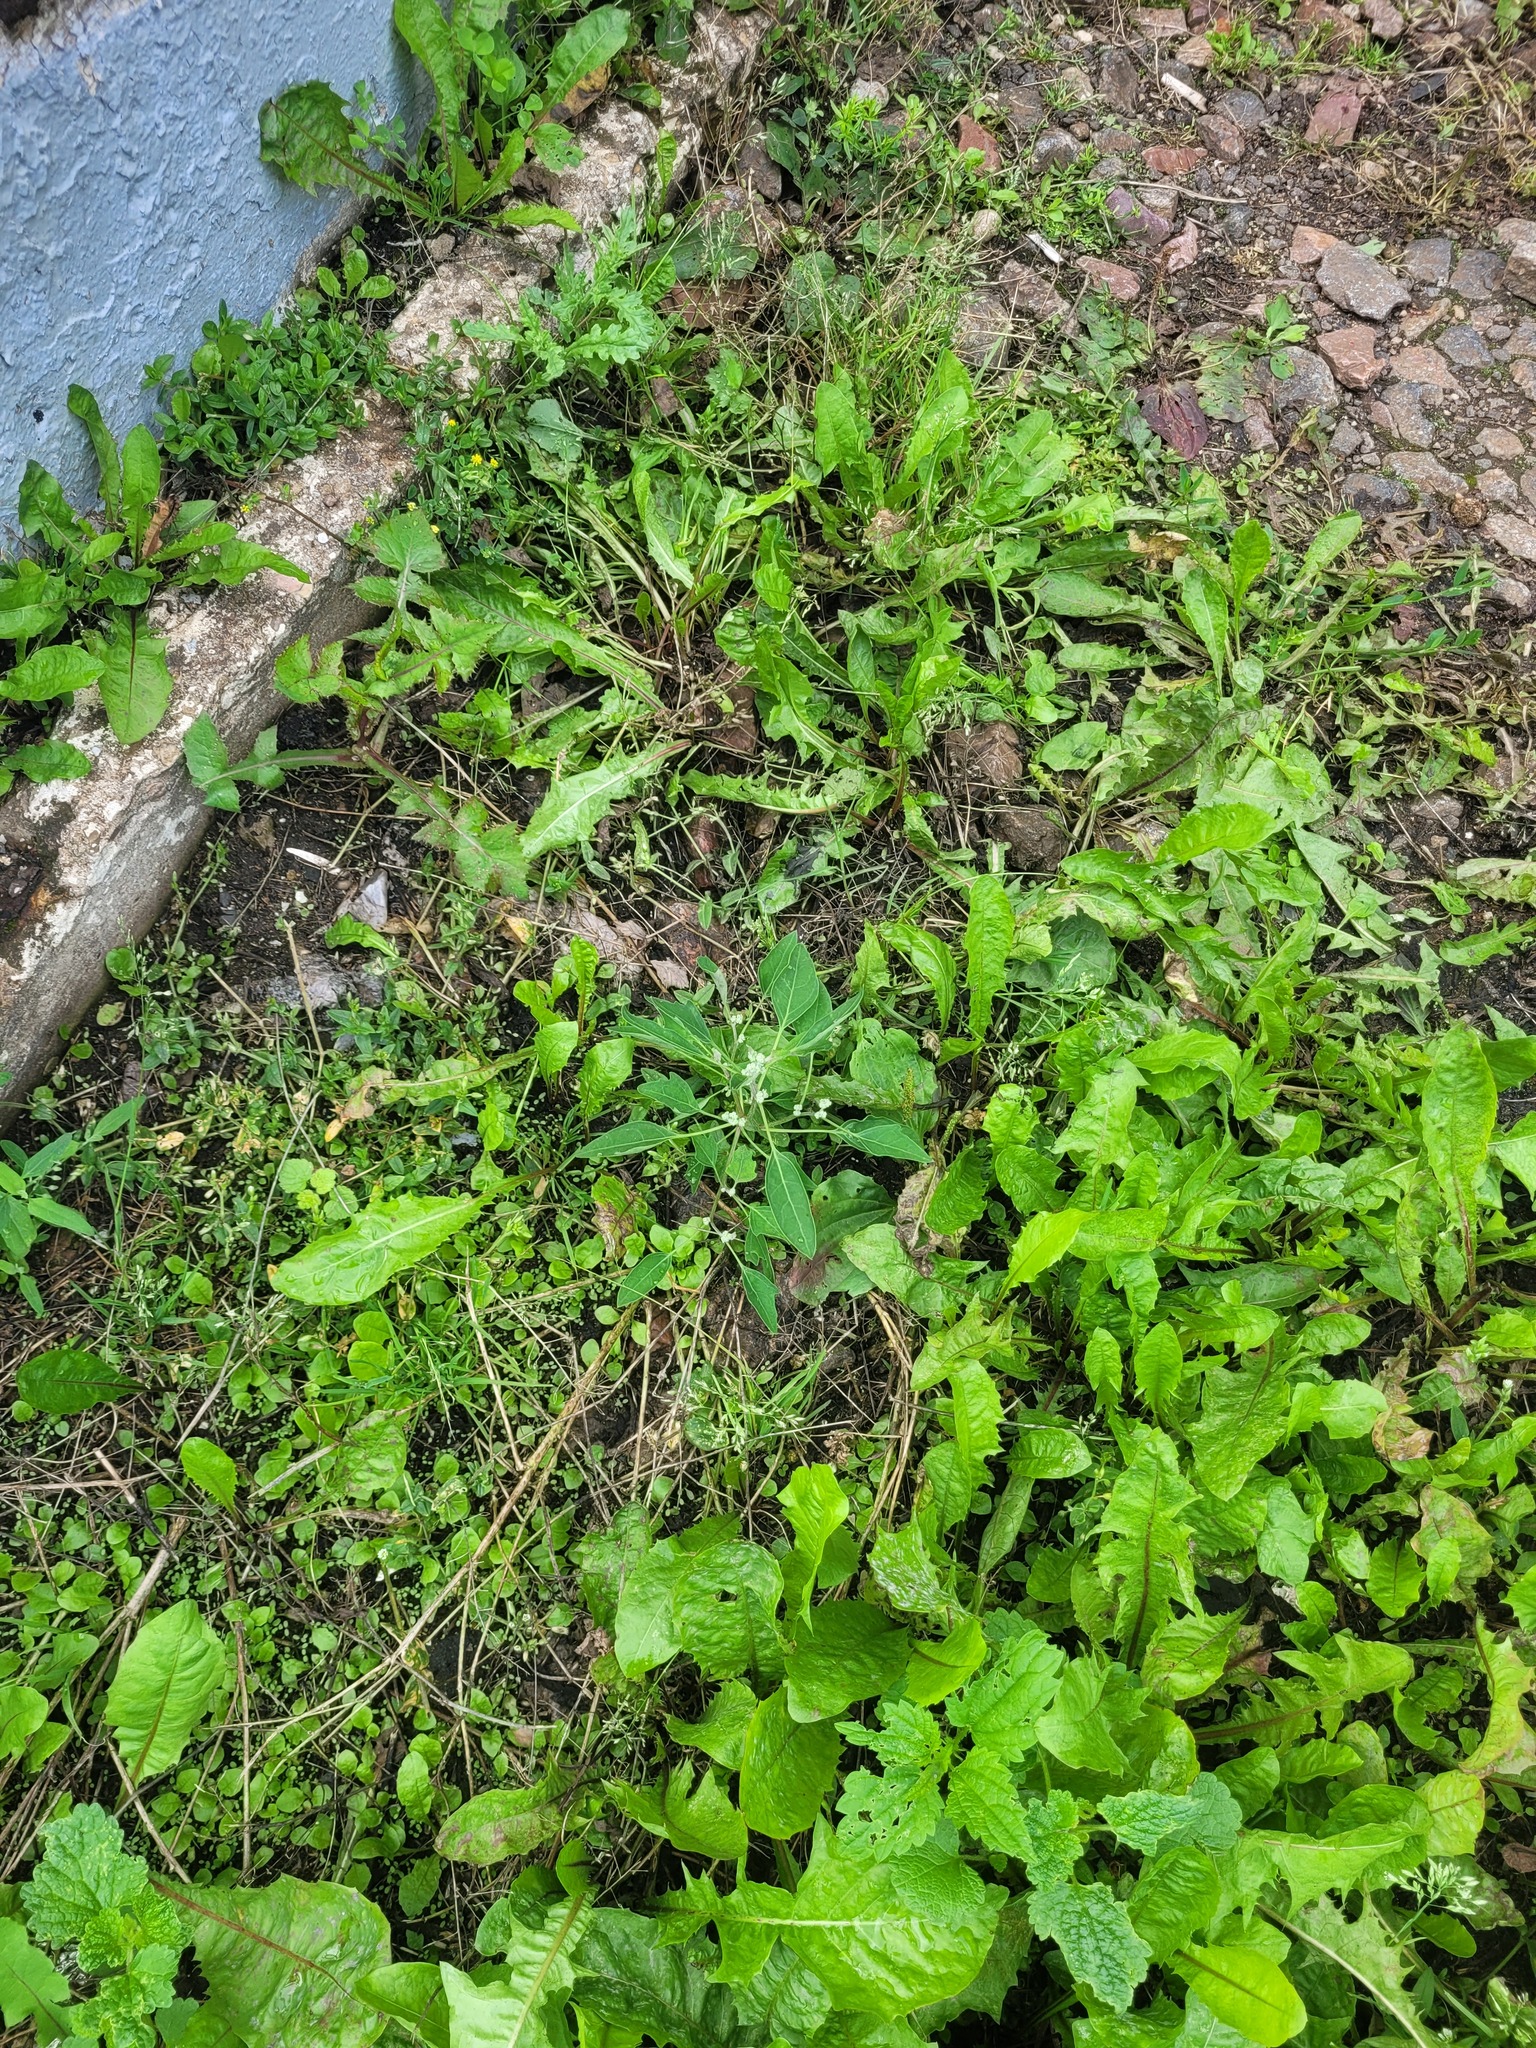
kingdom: Plantae
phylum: Tracheophyta
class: Magnoliopsida
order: Caryophyllales
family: Amaranthaceae
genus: Chenopodium
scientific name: Chenopodium album
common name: Fat-hen
